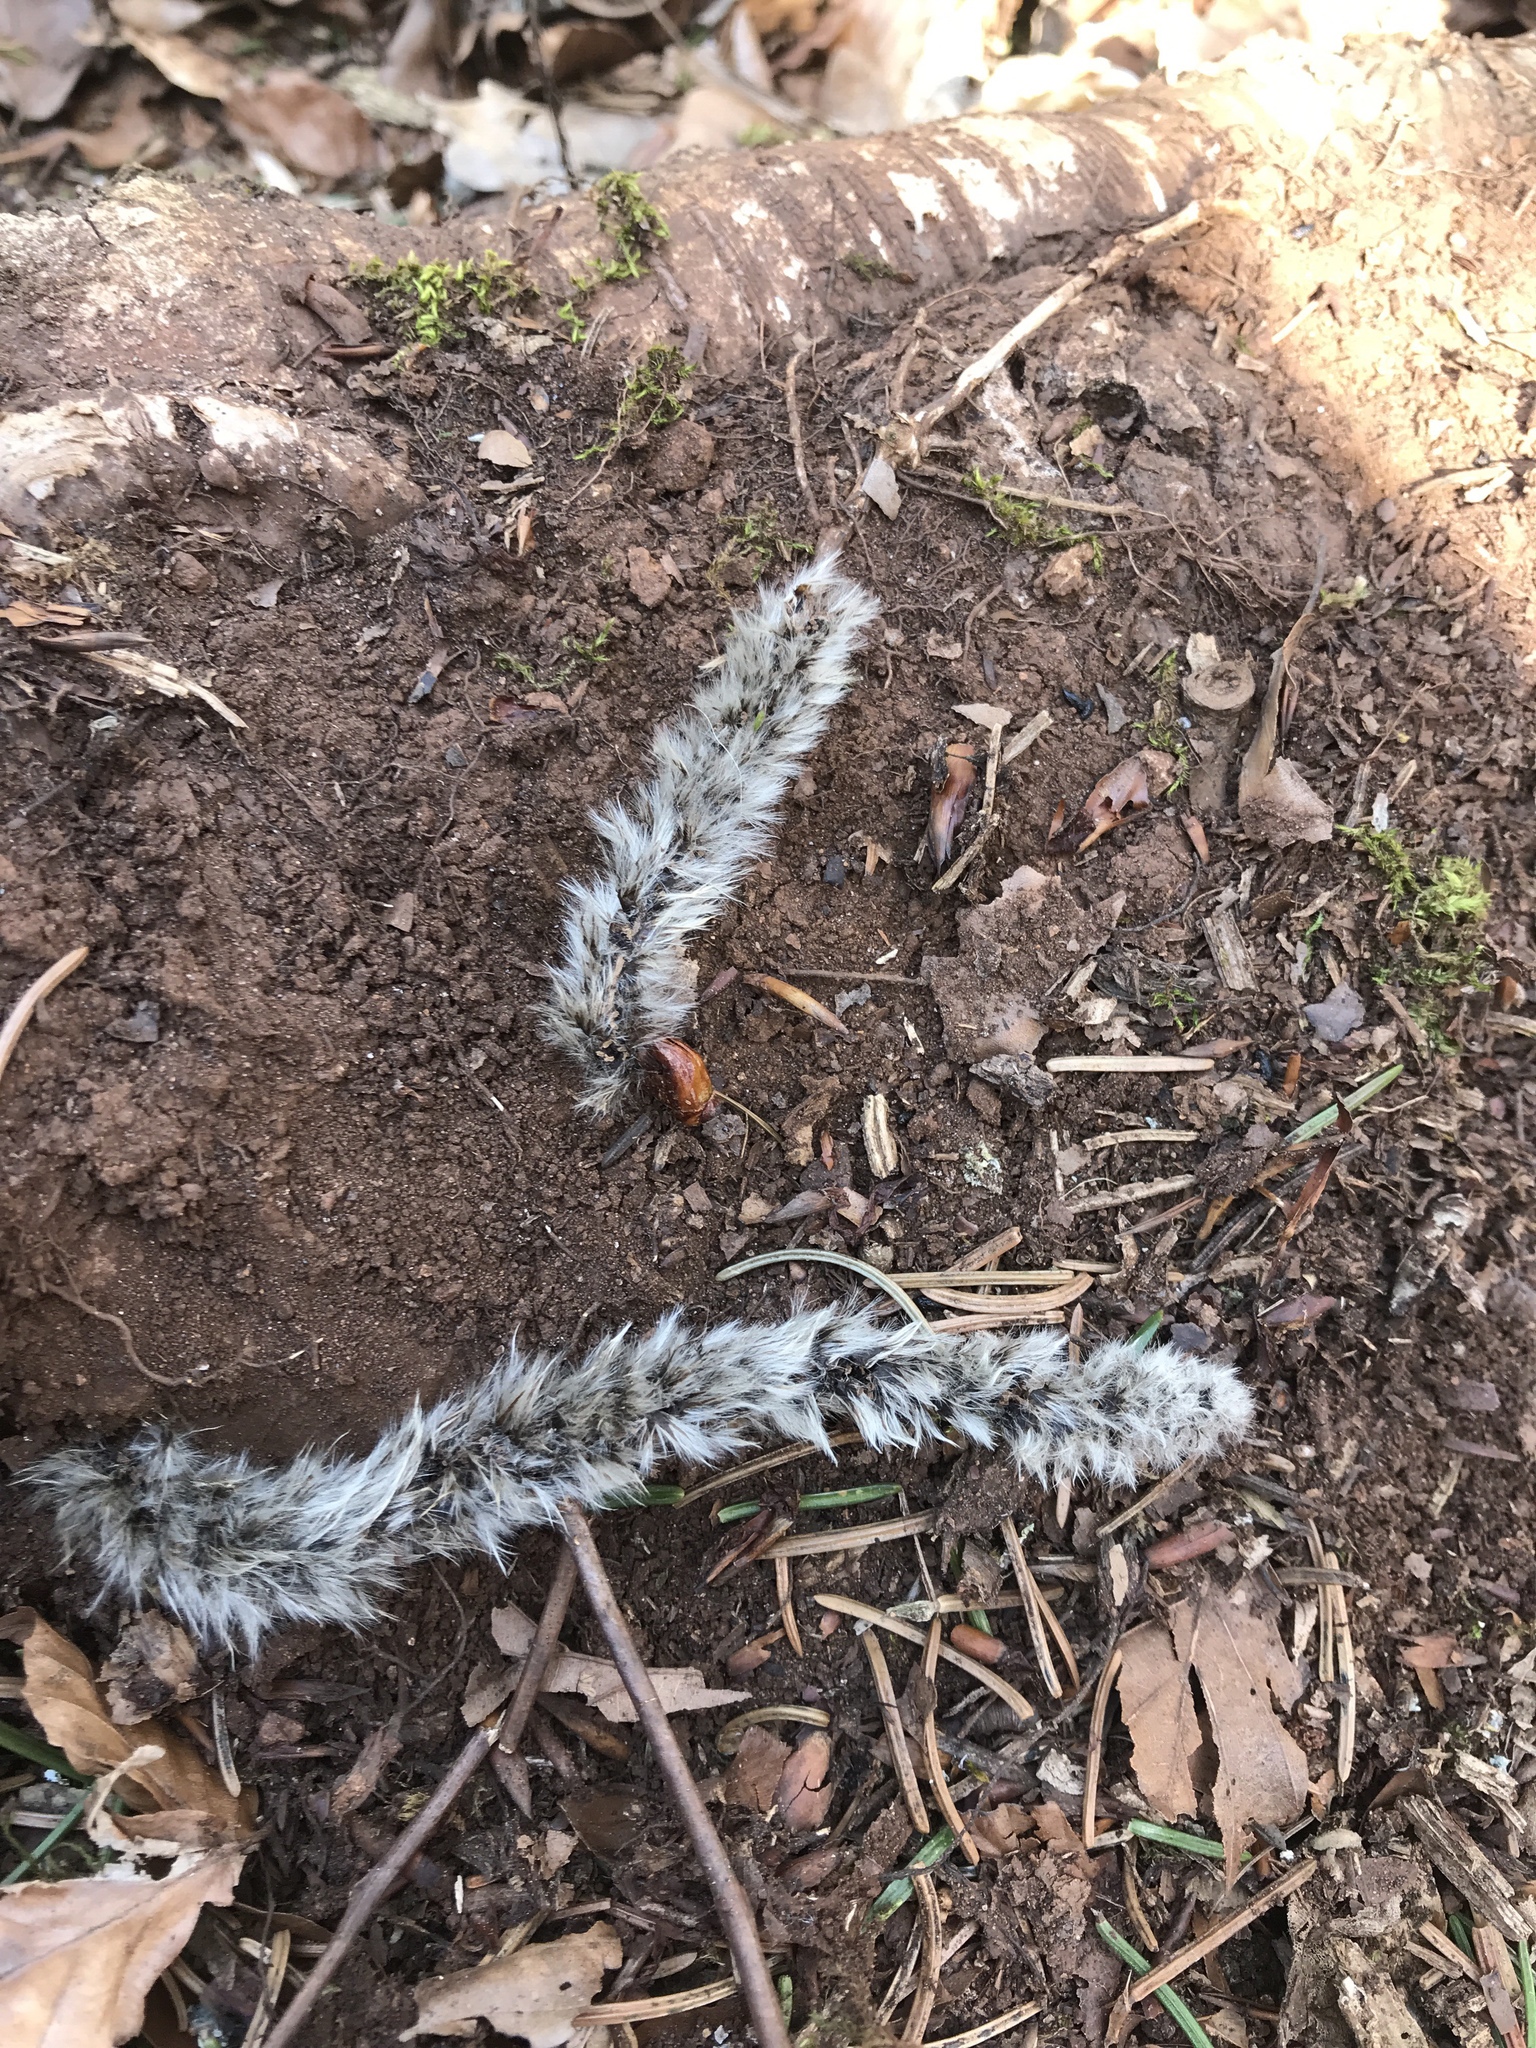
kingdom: Plantae
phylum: Tracheophyta
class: Magnoliopsida
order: Malpighiales
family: Salicaceae
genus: Populus
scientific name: Populus tremula
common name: European aspen
